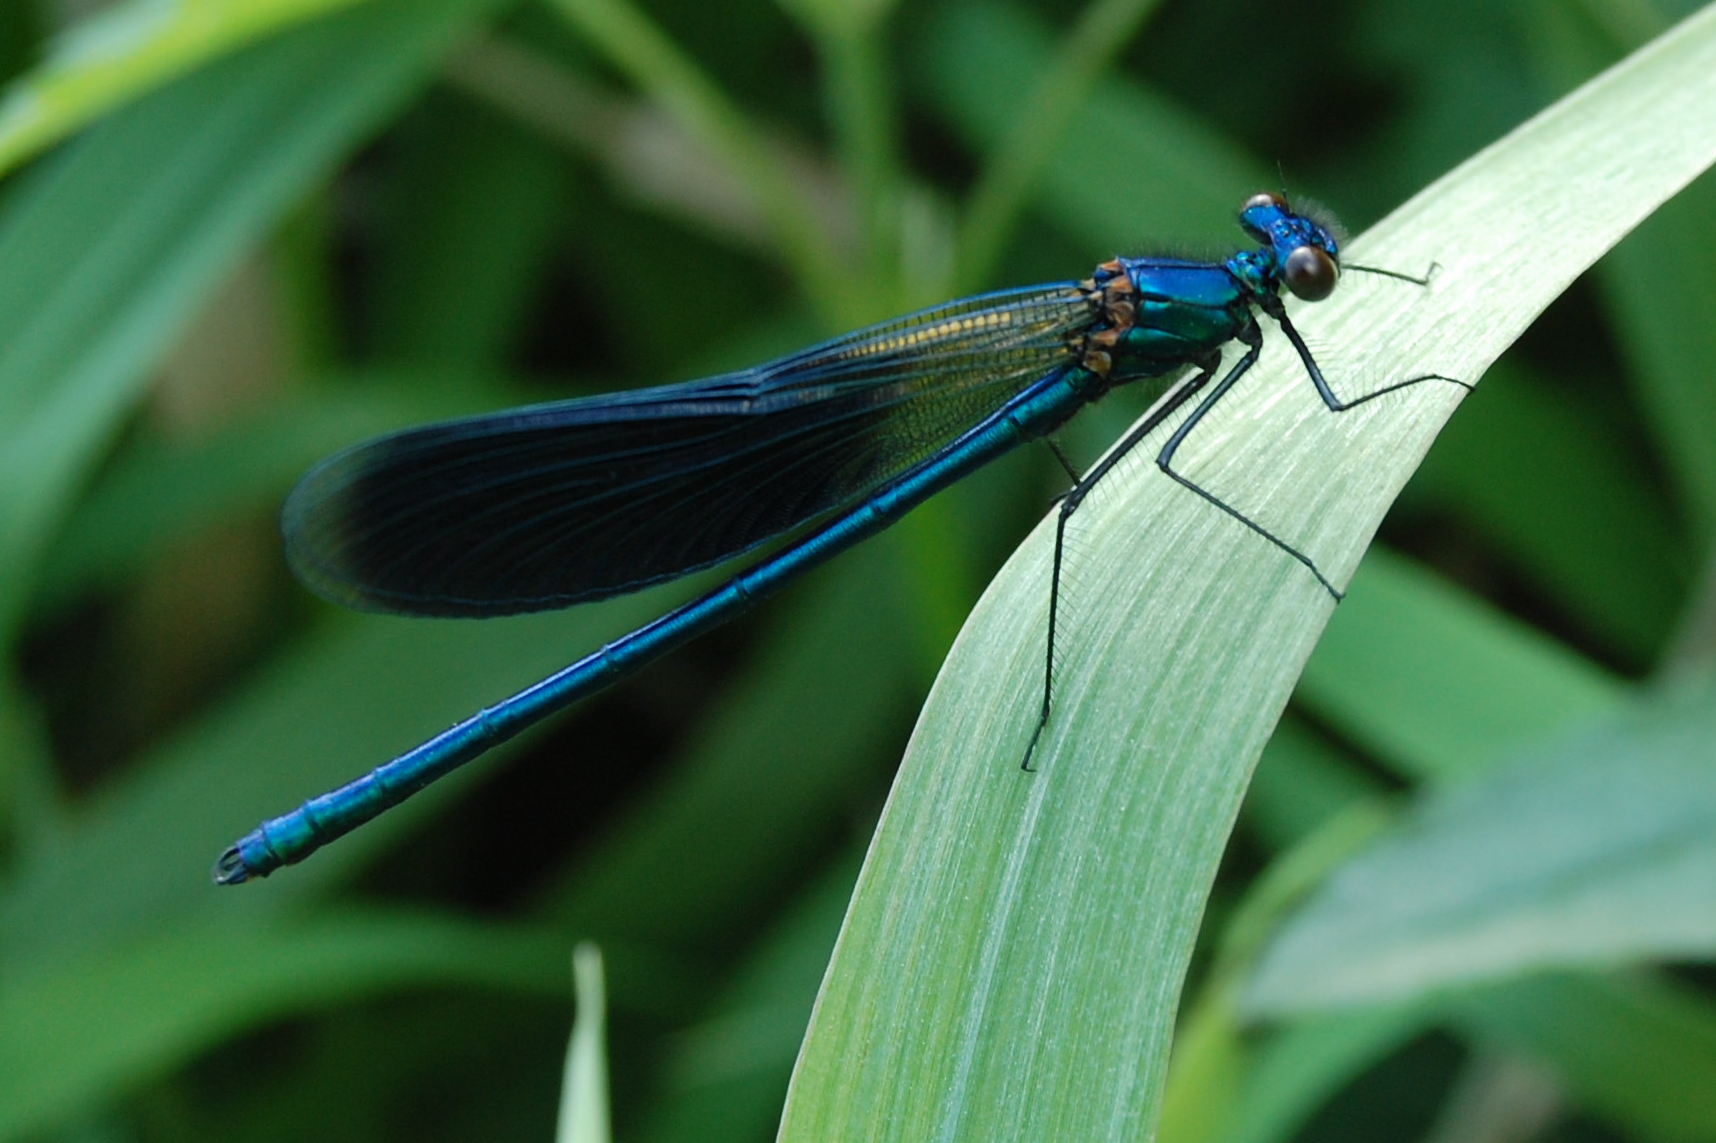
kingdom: Animalia
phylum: Arthropoda
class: Insecta
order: Odonata
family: Calopterygidae
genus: Calopteryx
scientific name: Calopteryx splendens
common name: Banded demoiselle
